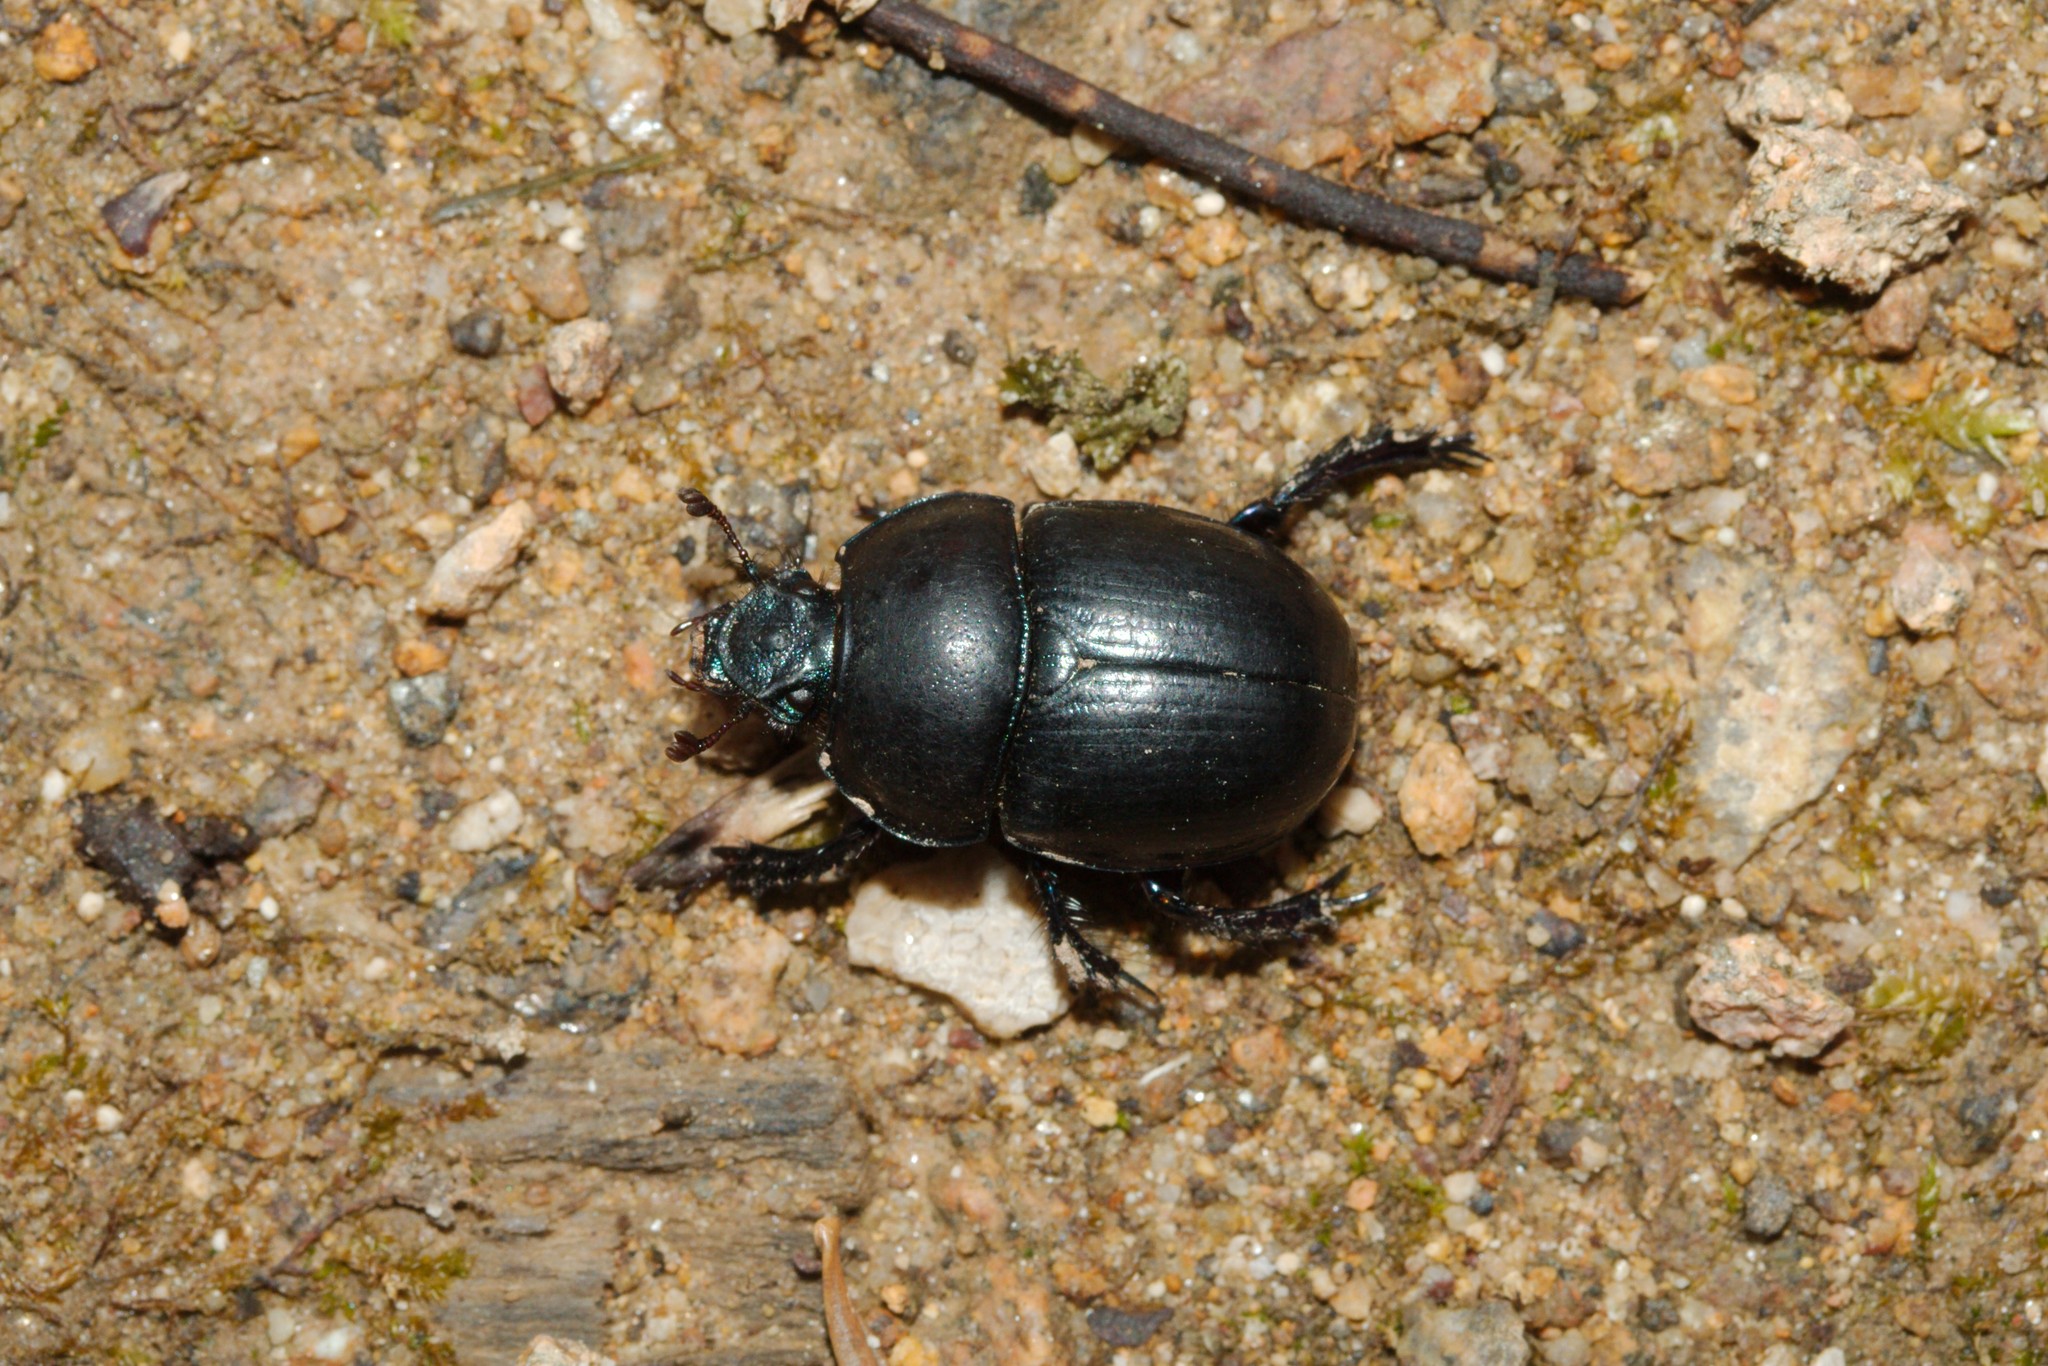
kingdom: Animalia
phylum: Arthropoda
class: Insecta
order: Coleoptera
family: Geotrupidae
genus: Anoplotrupes
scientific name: Anoplotrupes stercorosus
